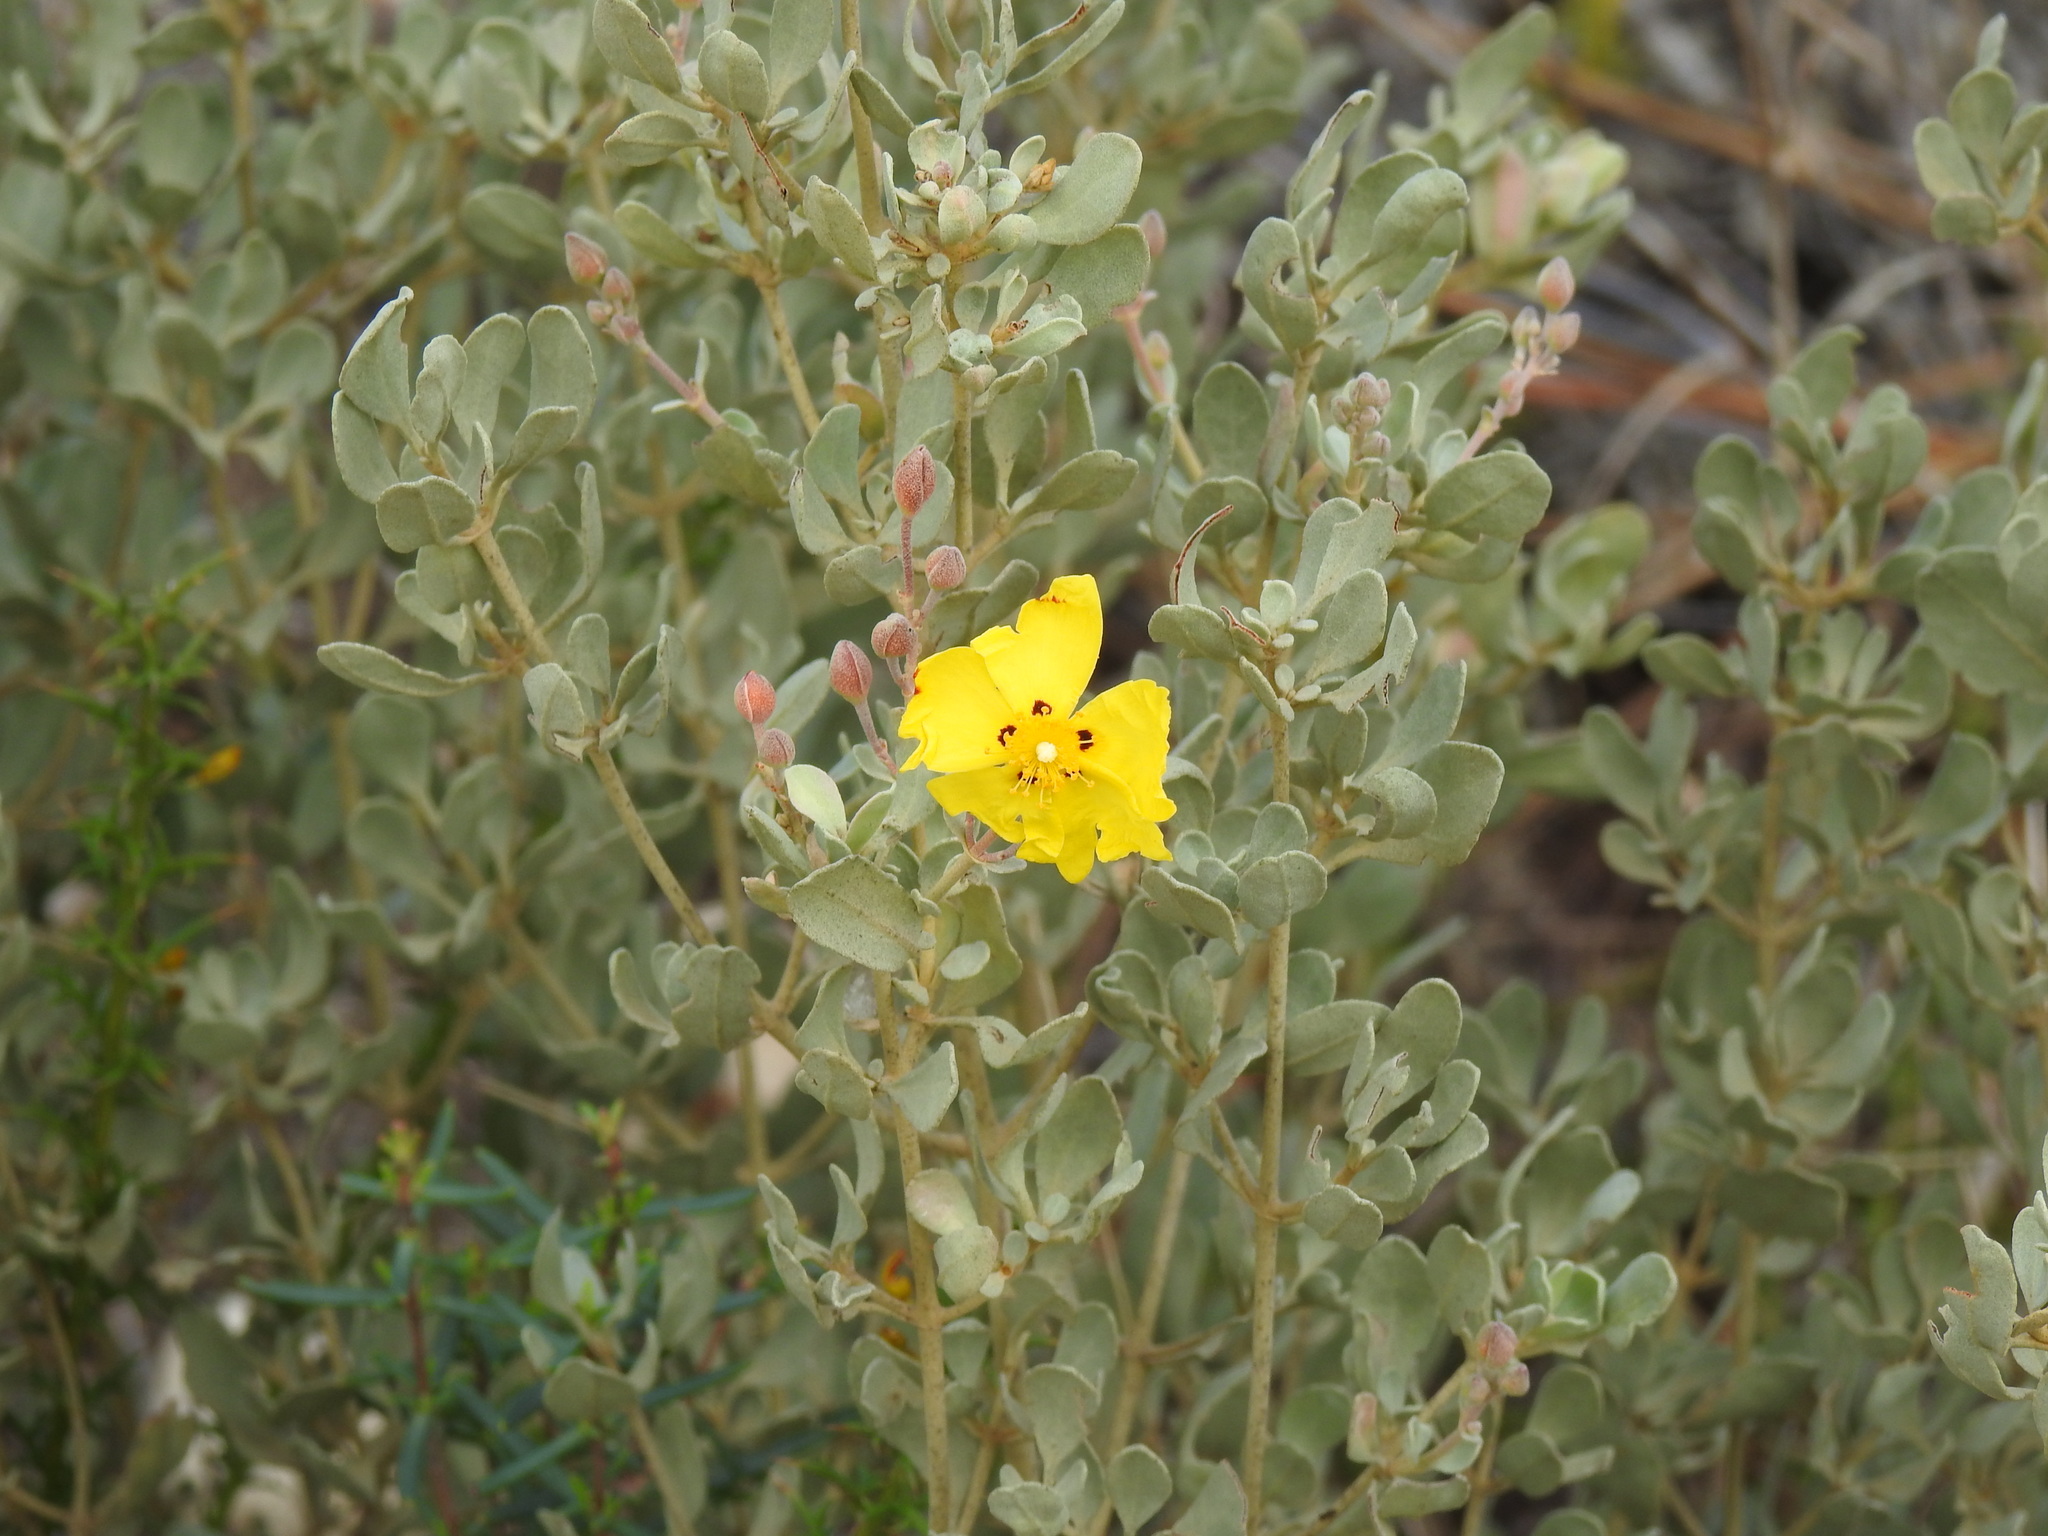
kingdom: Plantae
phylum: Tracheophyta
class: Magnoliopsida
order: Malvales
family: Cistaceae
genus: Halimium
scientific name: Halimium halimifolium
